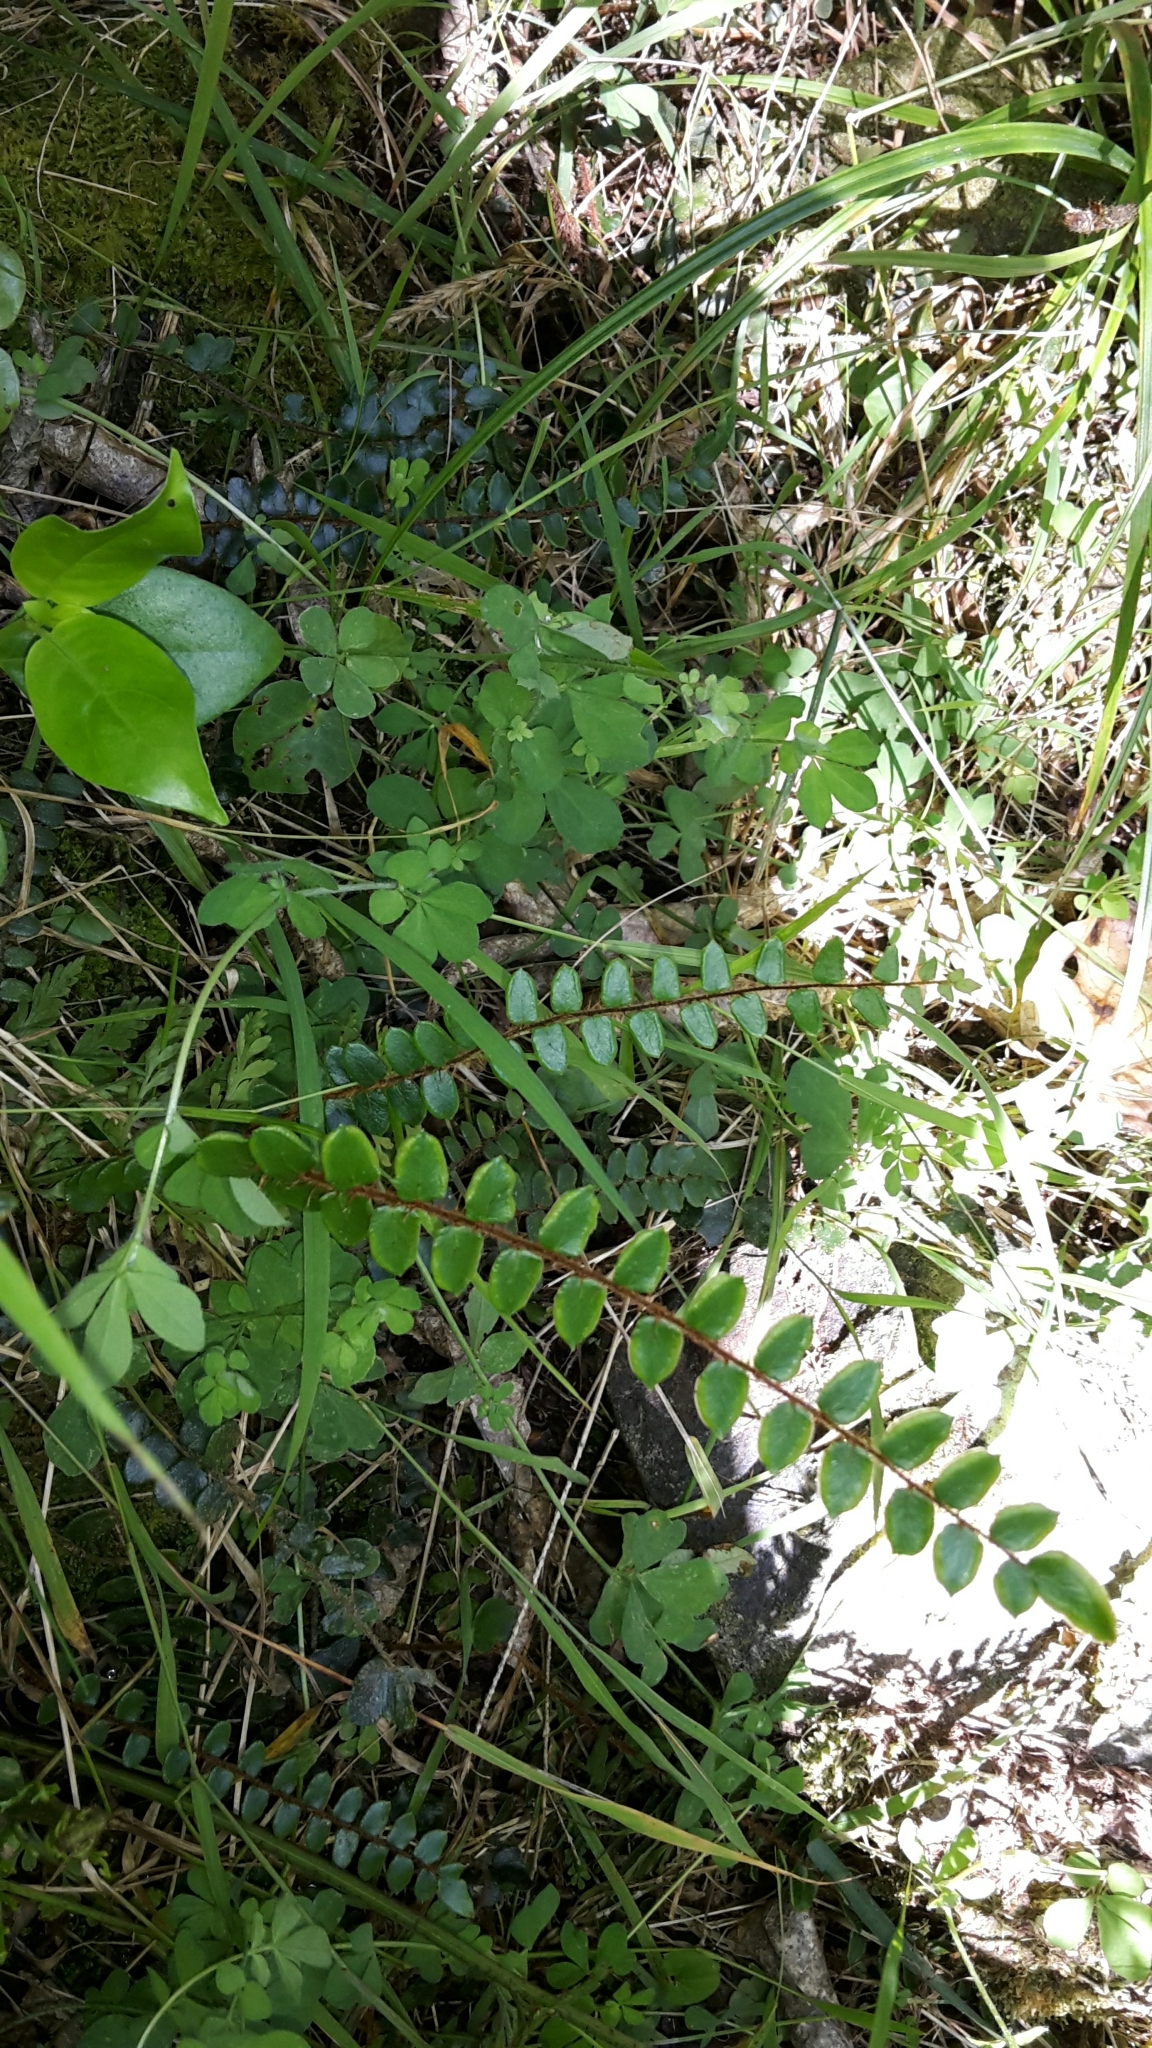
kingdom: Plantae
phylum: Tracheophyta
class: Polypodiopsida
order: Polypodiales
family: Pteridaceae
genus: Pellaea
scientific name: Pellaea rotundifolia
